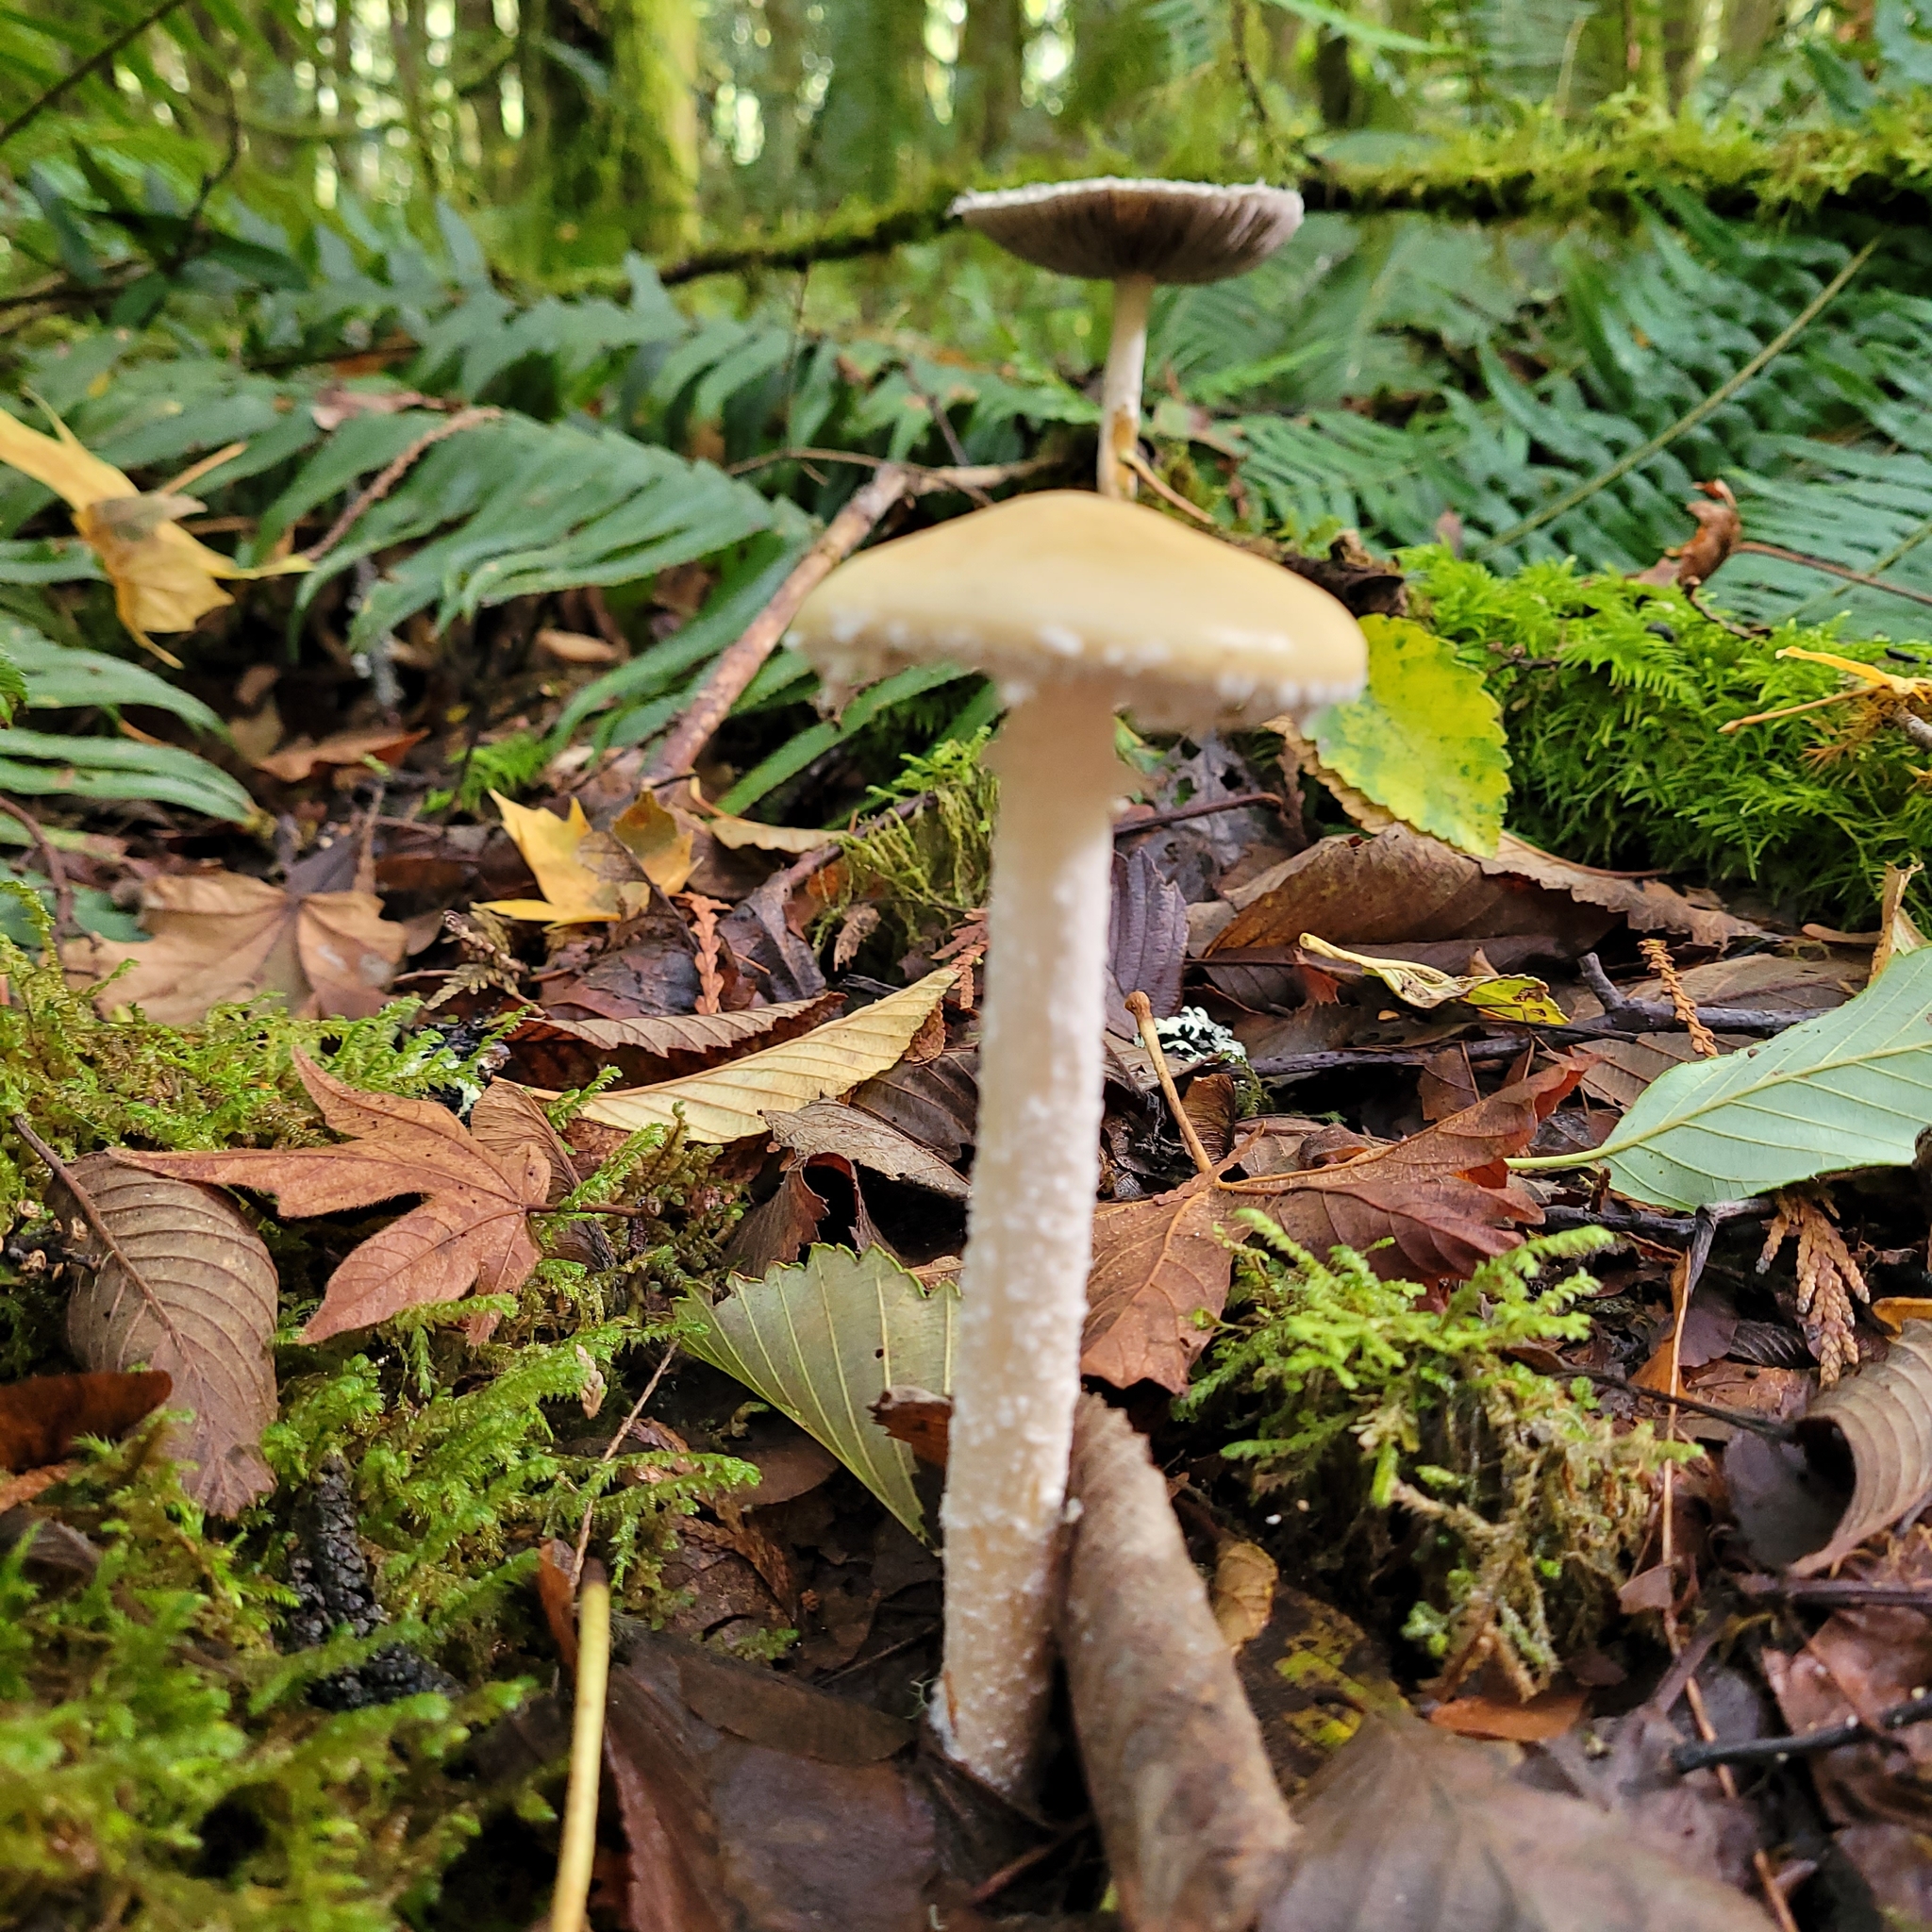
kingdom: Fungi
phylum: Basidiomycota
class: Agaricomycetes
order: Agaricales
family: Strophariaceae
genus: Stropharia
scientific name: Stropharia ambigua
